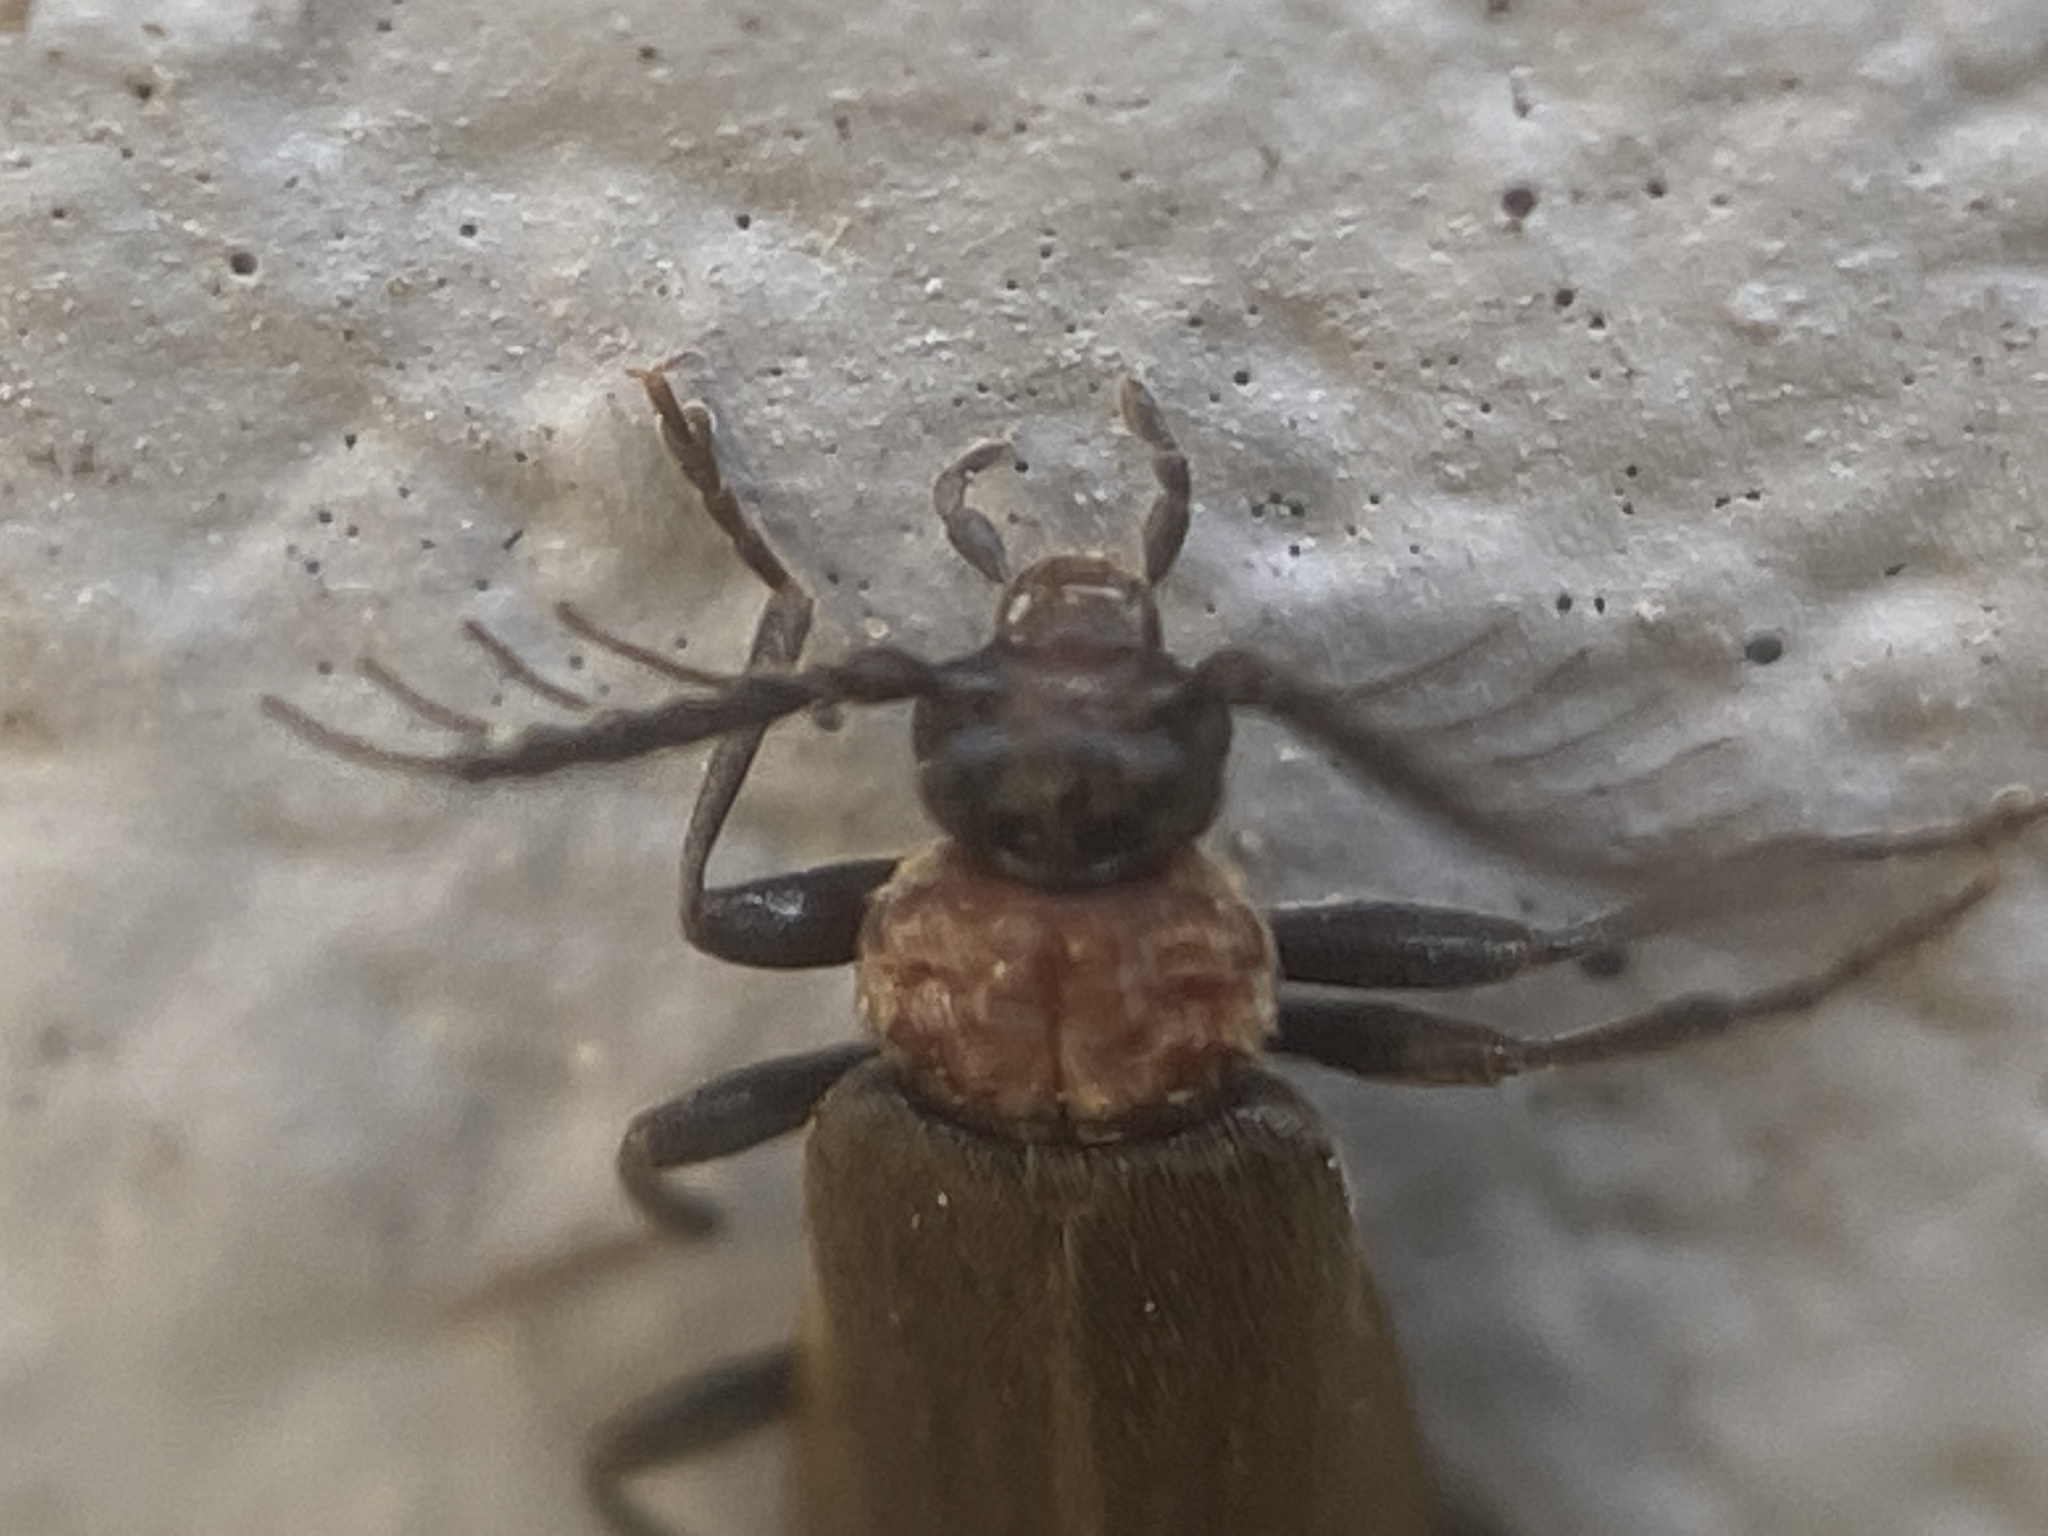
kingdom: Animalia
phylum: Arthropoda
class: Insecta
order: Coleoptera
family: Pyrochroidae
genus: Schizotus
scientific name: Schizotus cervicalis
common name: Flaming-pillow beetle
